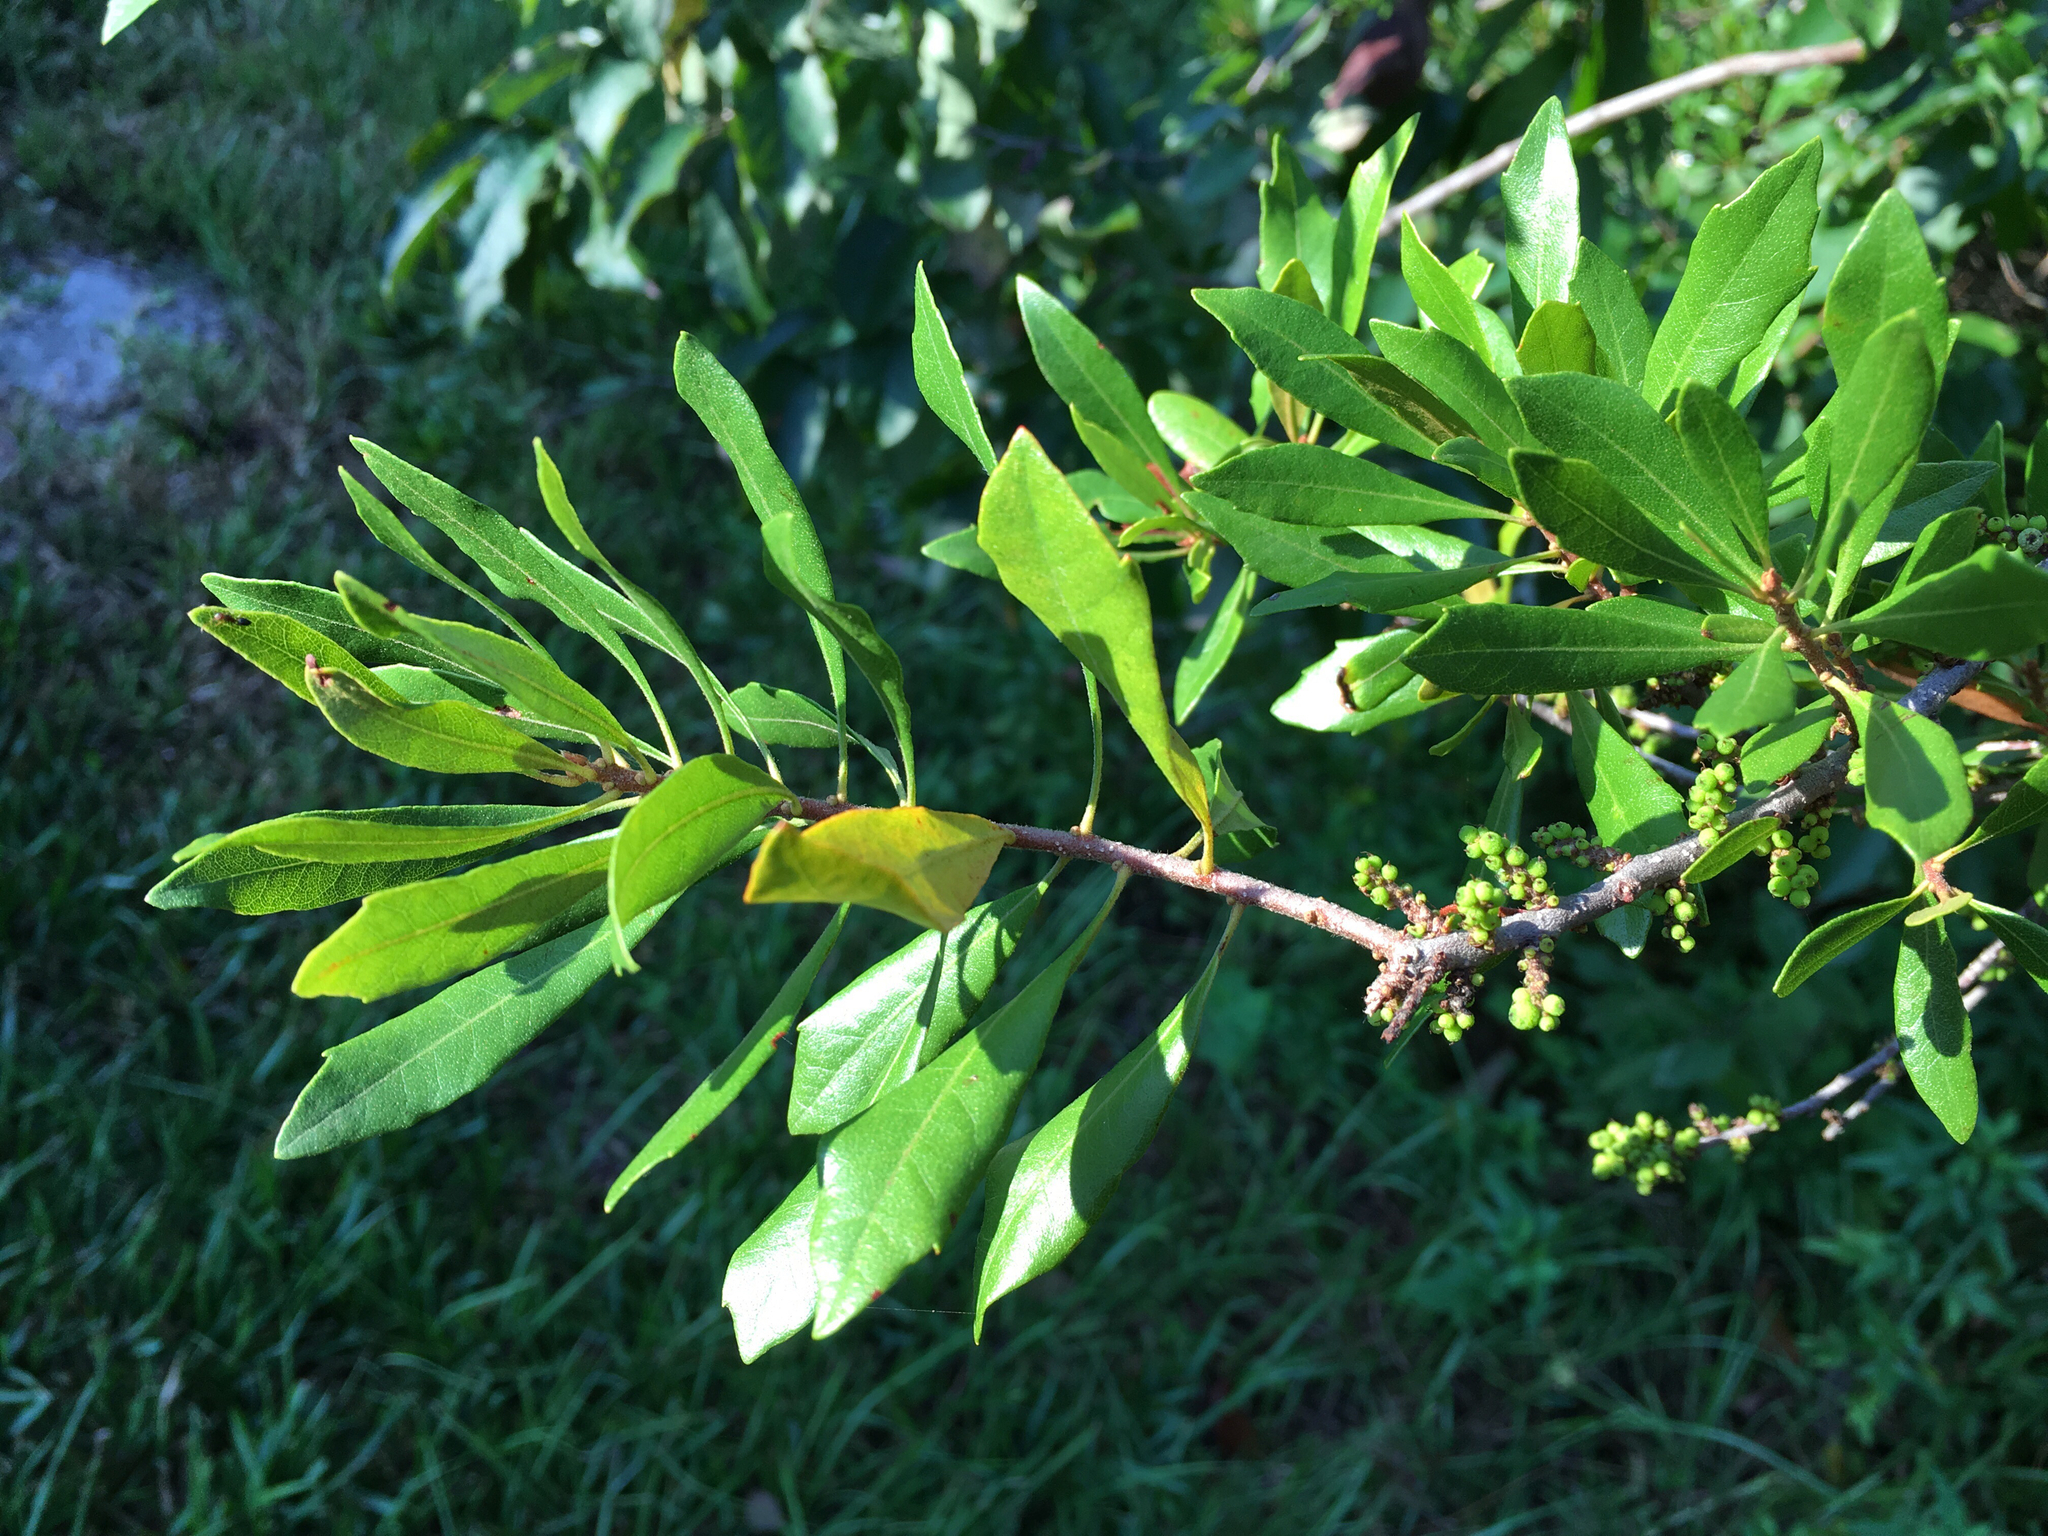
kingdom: Plantae
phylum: Tracheophyta
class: Magnoliopsida
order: Fagales
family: Myricaceae
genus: Morella
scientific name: Morella cerifera
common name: Wax myrtle
